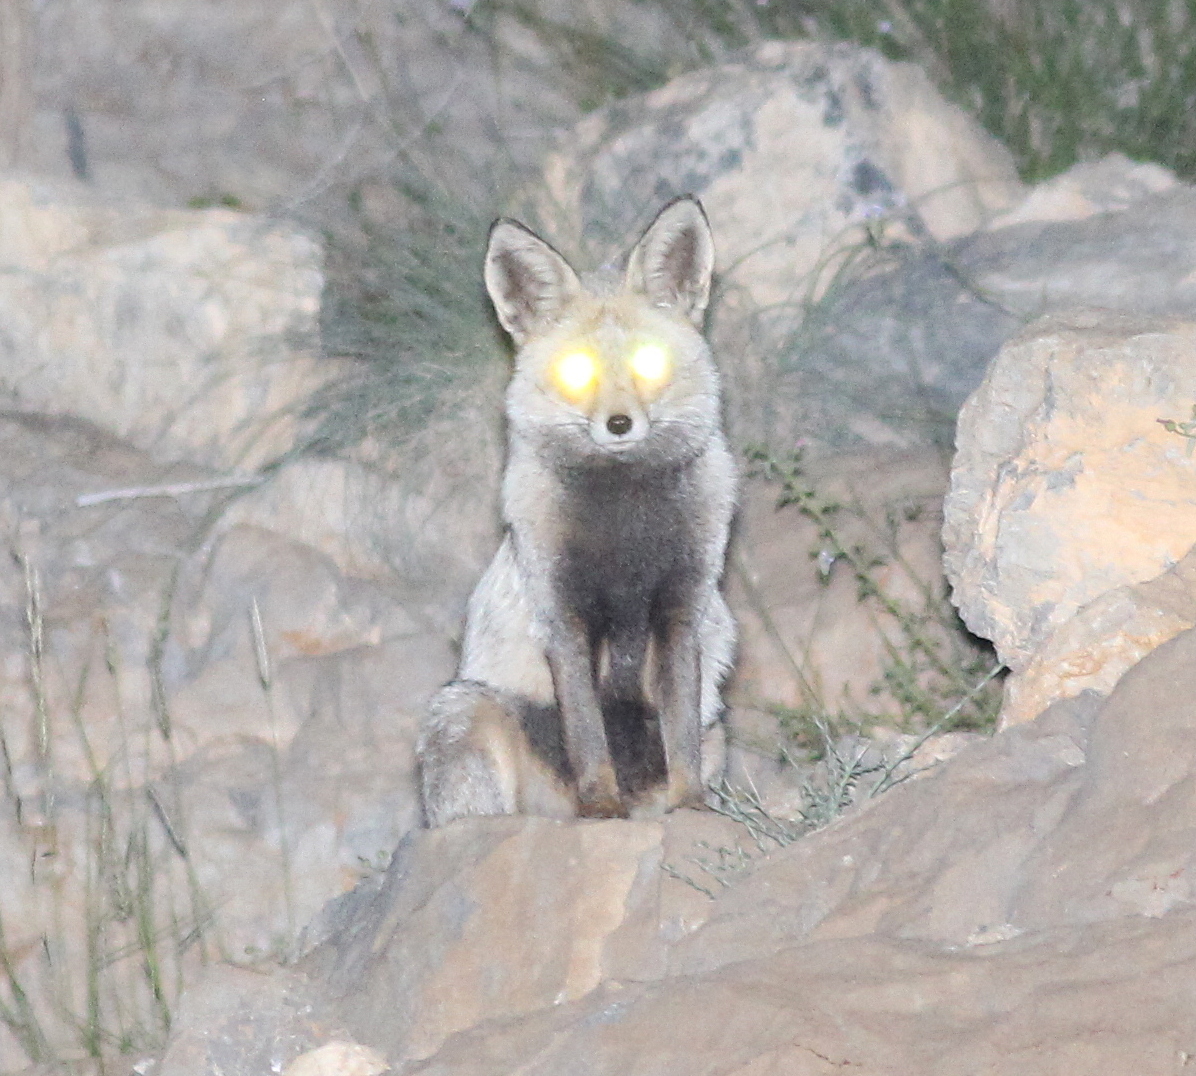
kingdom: Animalia
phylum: Chordata
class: Mammalia
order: Carnivora
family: Canidae
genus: Vulpes
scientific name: Vulpes vulpes
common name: Red fox
